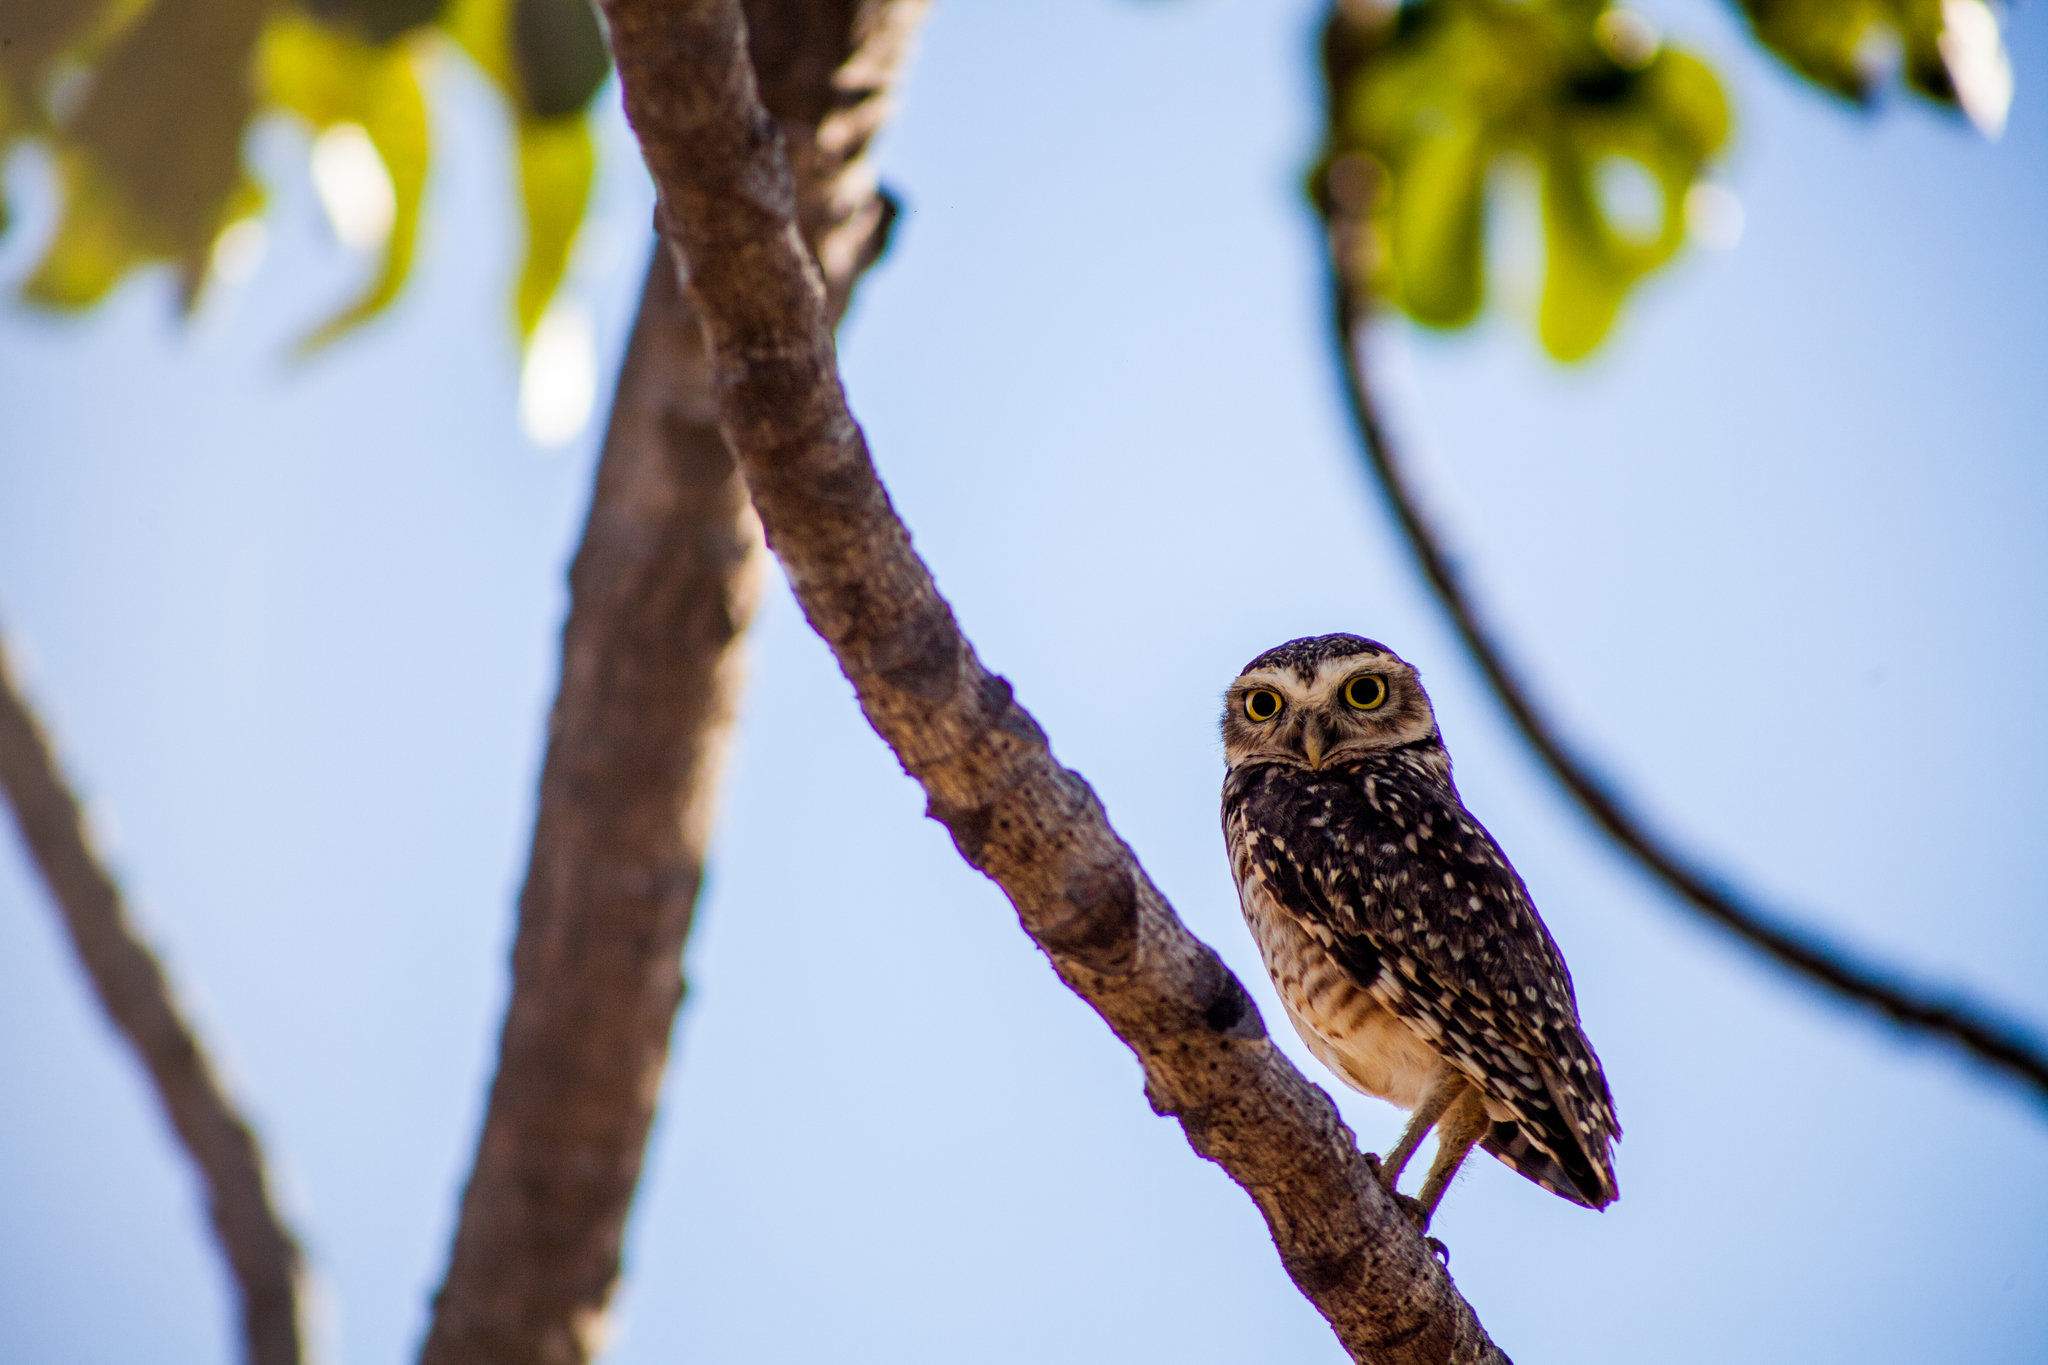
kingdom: Animalia
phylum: Chordata
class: Aves
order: Strigiformes
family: Strigidae
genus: Athene
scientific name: Athene cunicularia
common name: Burrowing owl
